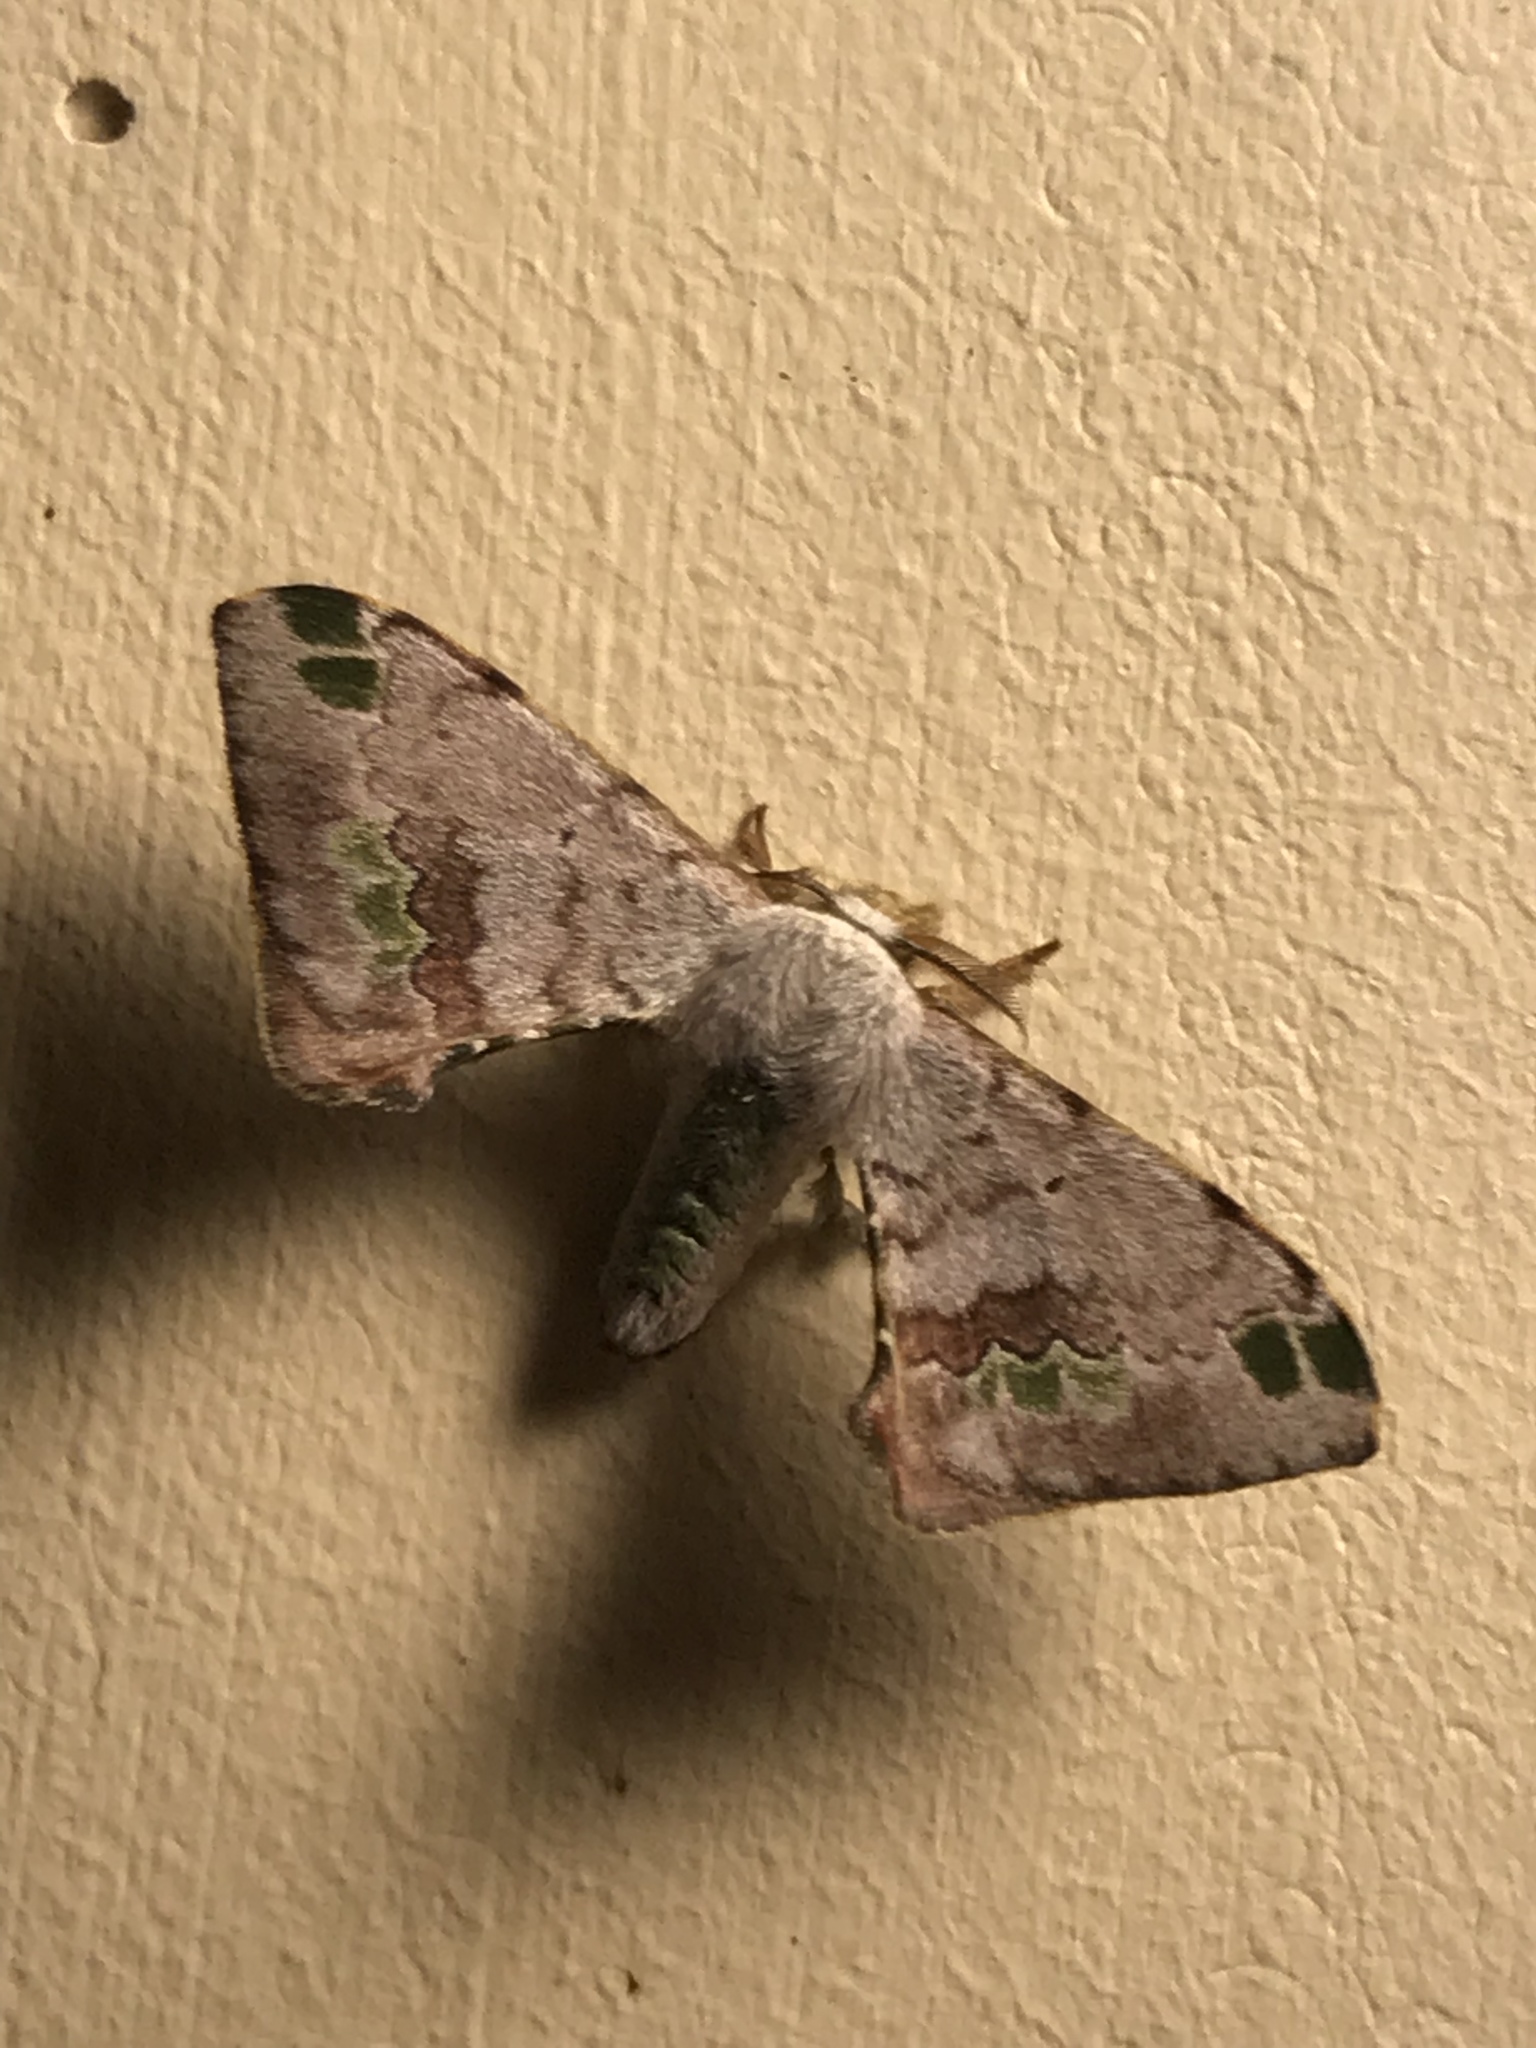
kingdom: Animalia
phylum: Arthropoda
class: Insecta
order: Lepidoptera
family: Bombycidae
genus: Anticla
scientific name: Anticla antica
